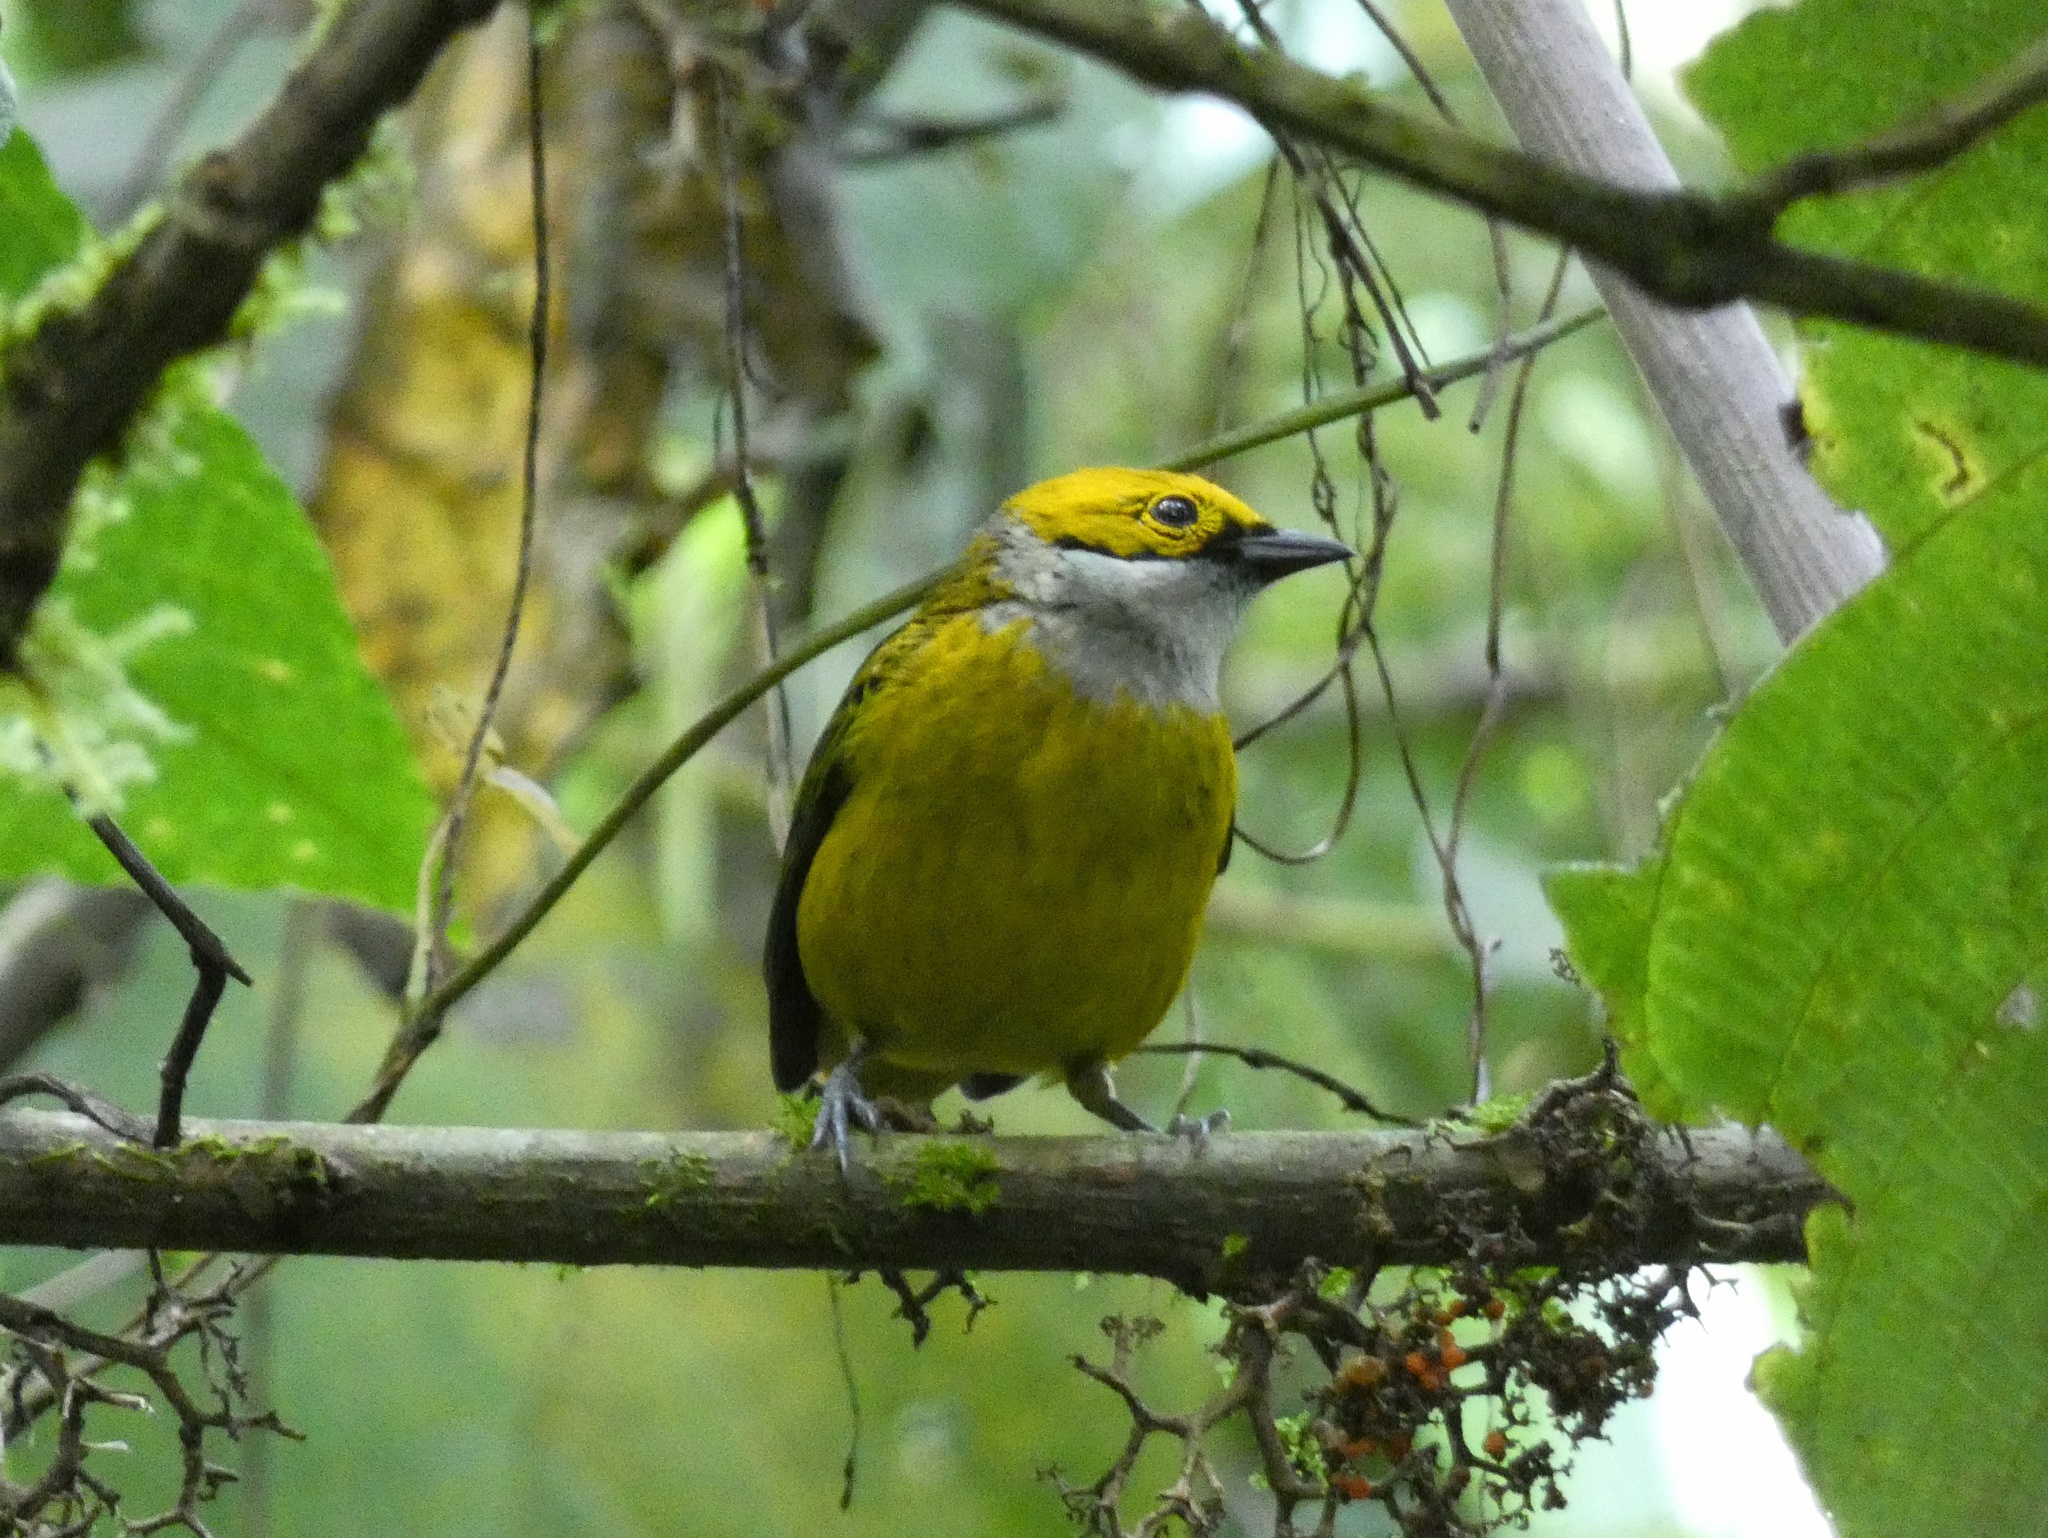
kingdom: Animalia
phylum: Chordata
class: Aves
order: Passeriformes
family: Thraupidae
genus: Tangara
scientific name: Tangara icterocephala
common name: Silver-throated tanager
